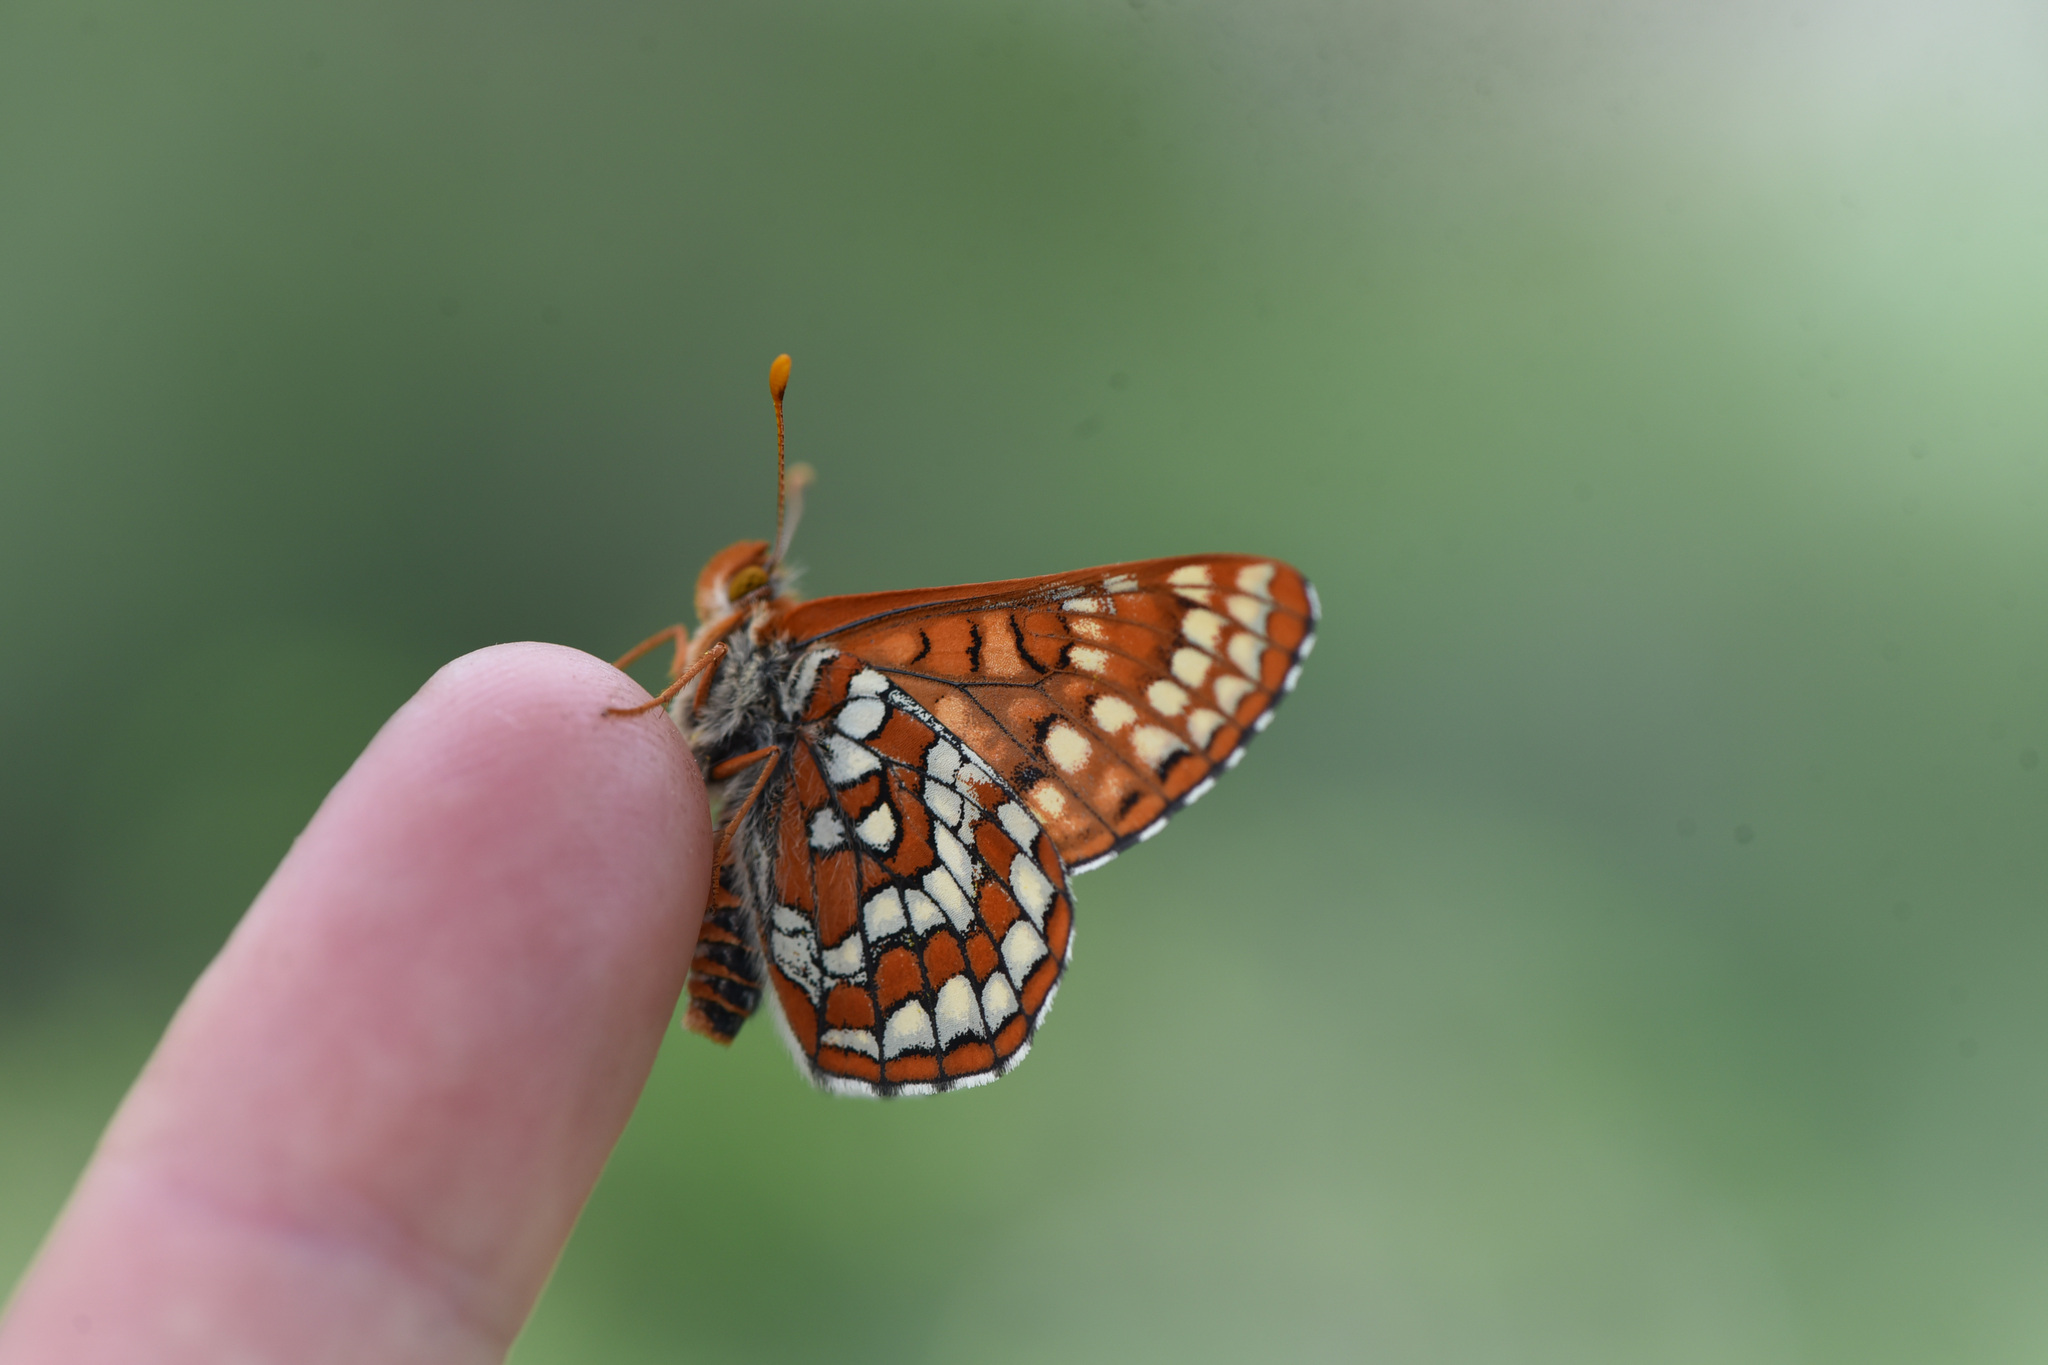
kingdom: Animalia
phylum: Arthropoda
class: Insecta
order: Lepidoptera
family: Nymphalidae
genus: Occidryas
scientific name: Occidryas anicia
